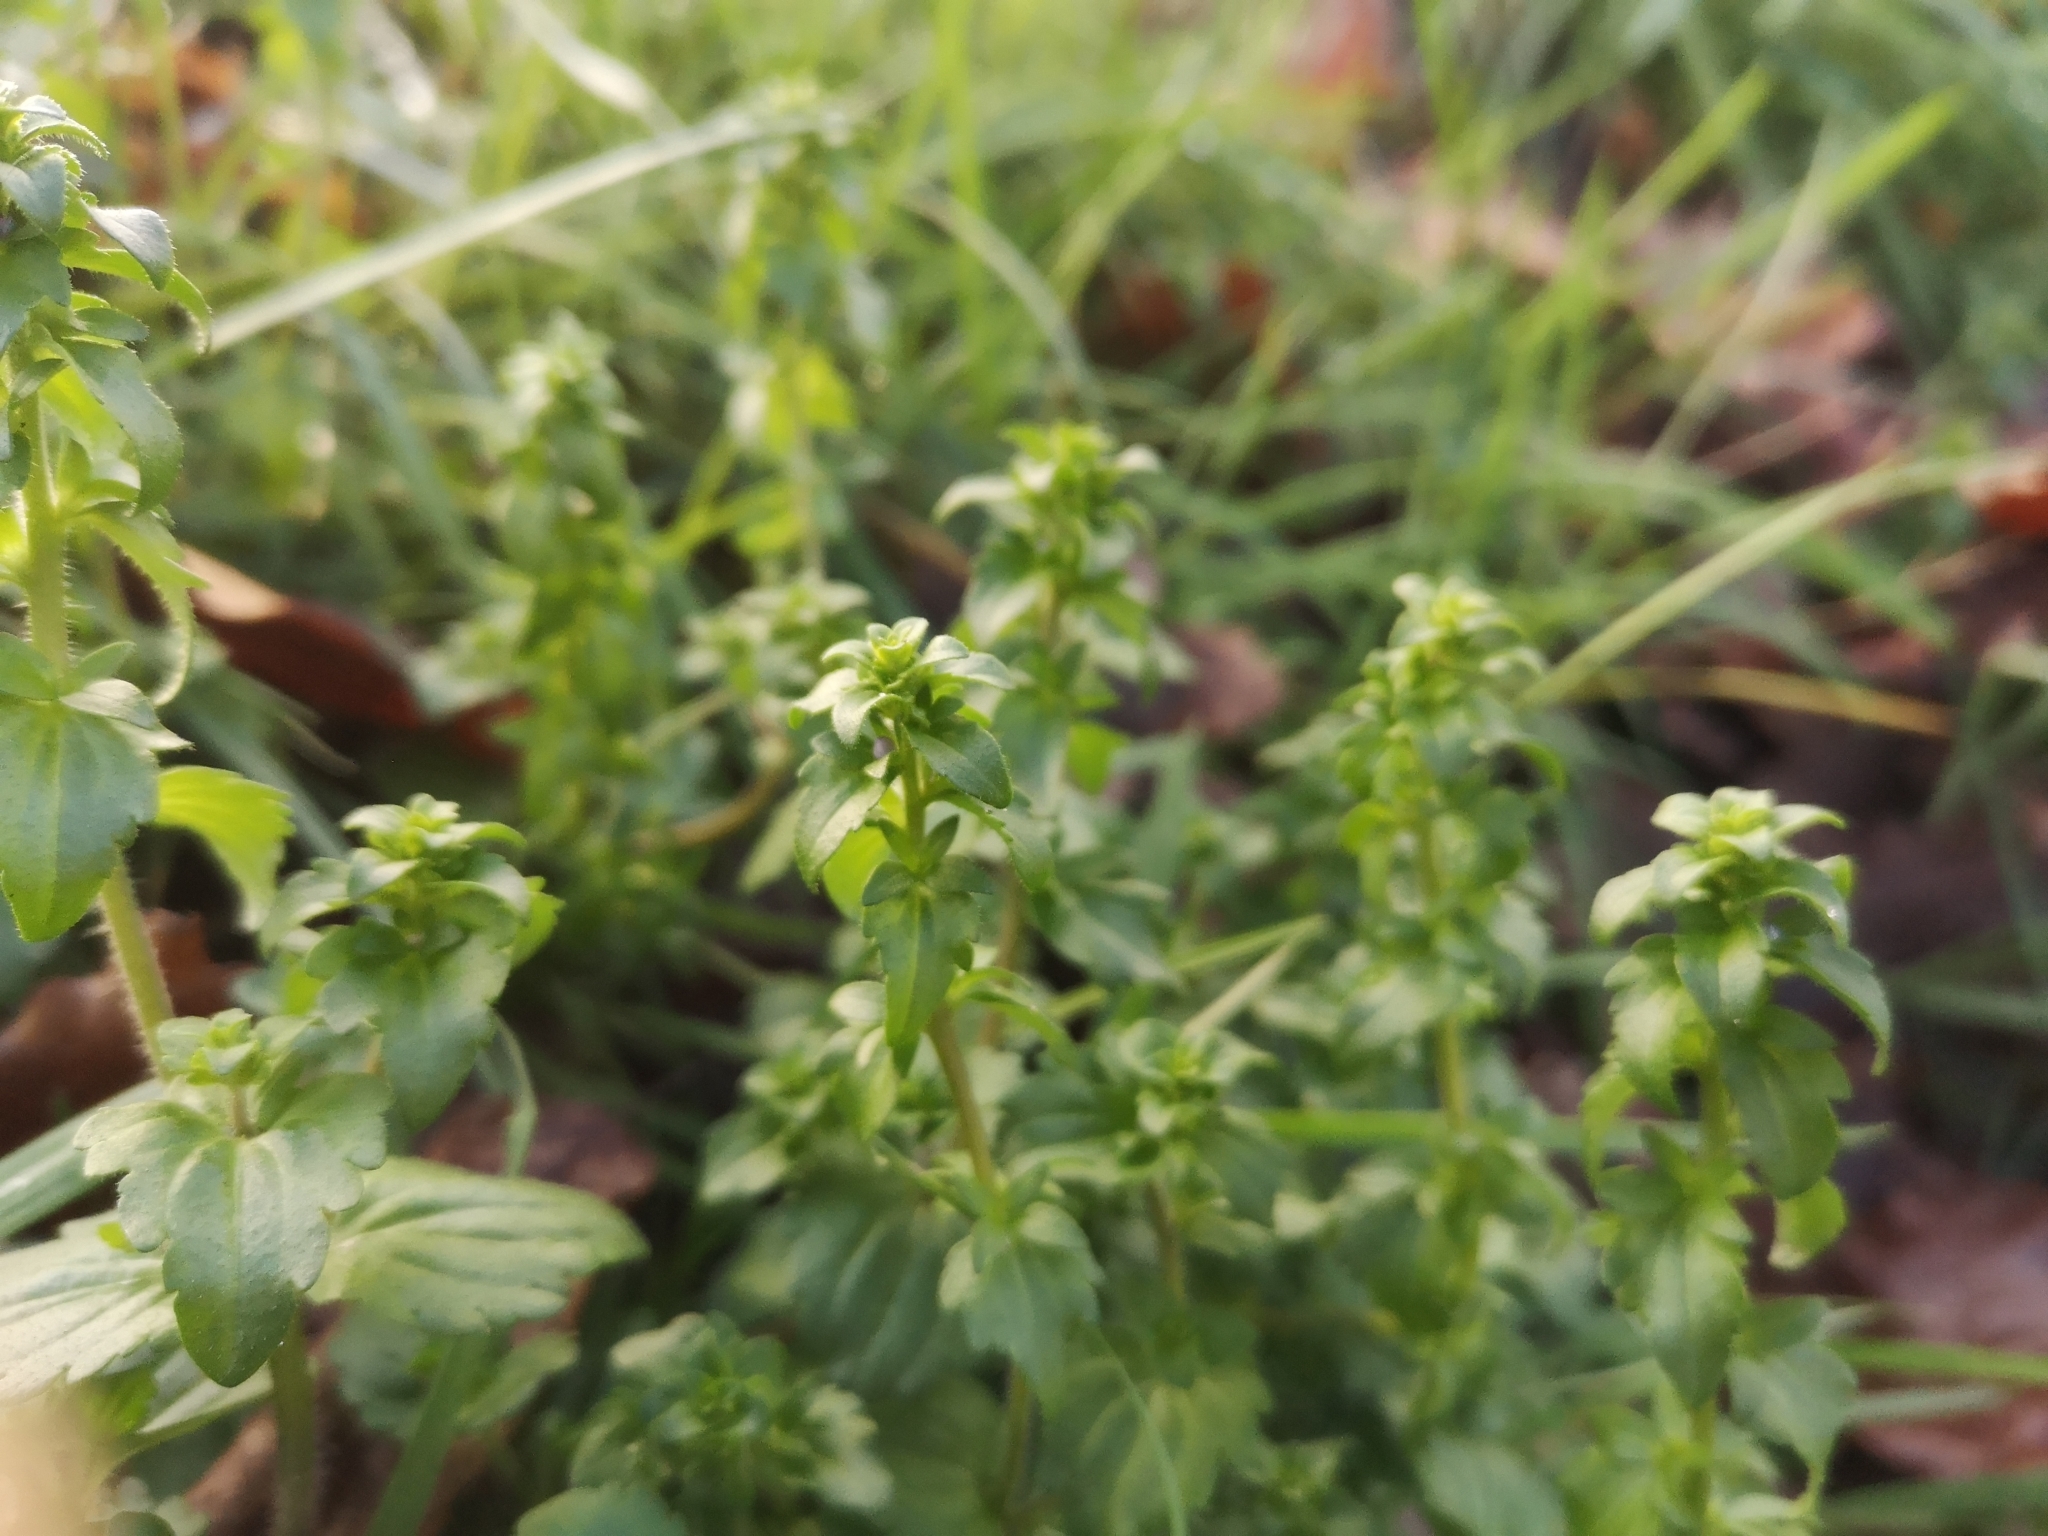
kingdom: Plantae
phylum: Tracheophyta
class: Magnoliopsida
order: Lamiales
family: Plantaginaceae
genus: Veronica
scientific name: Veronica arvensis
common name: Corn speedwell
